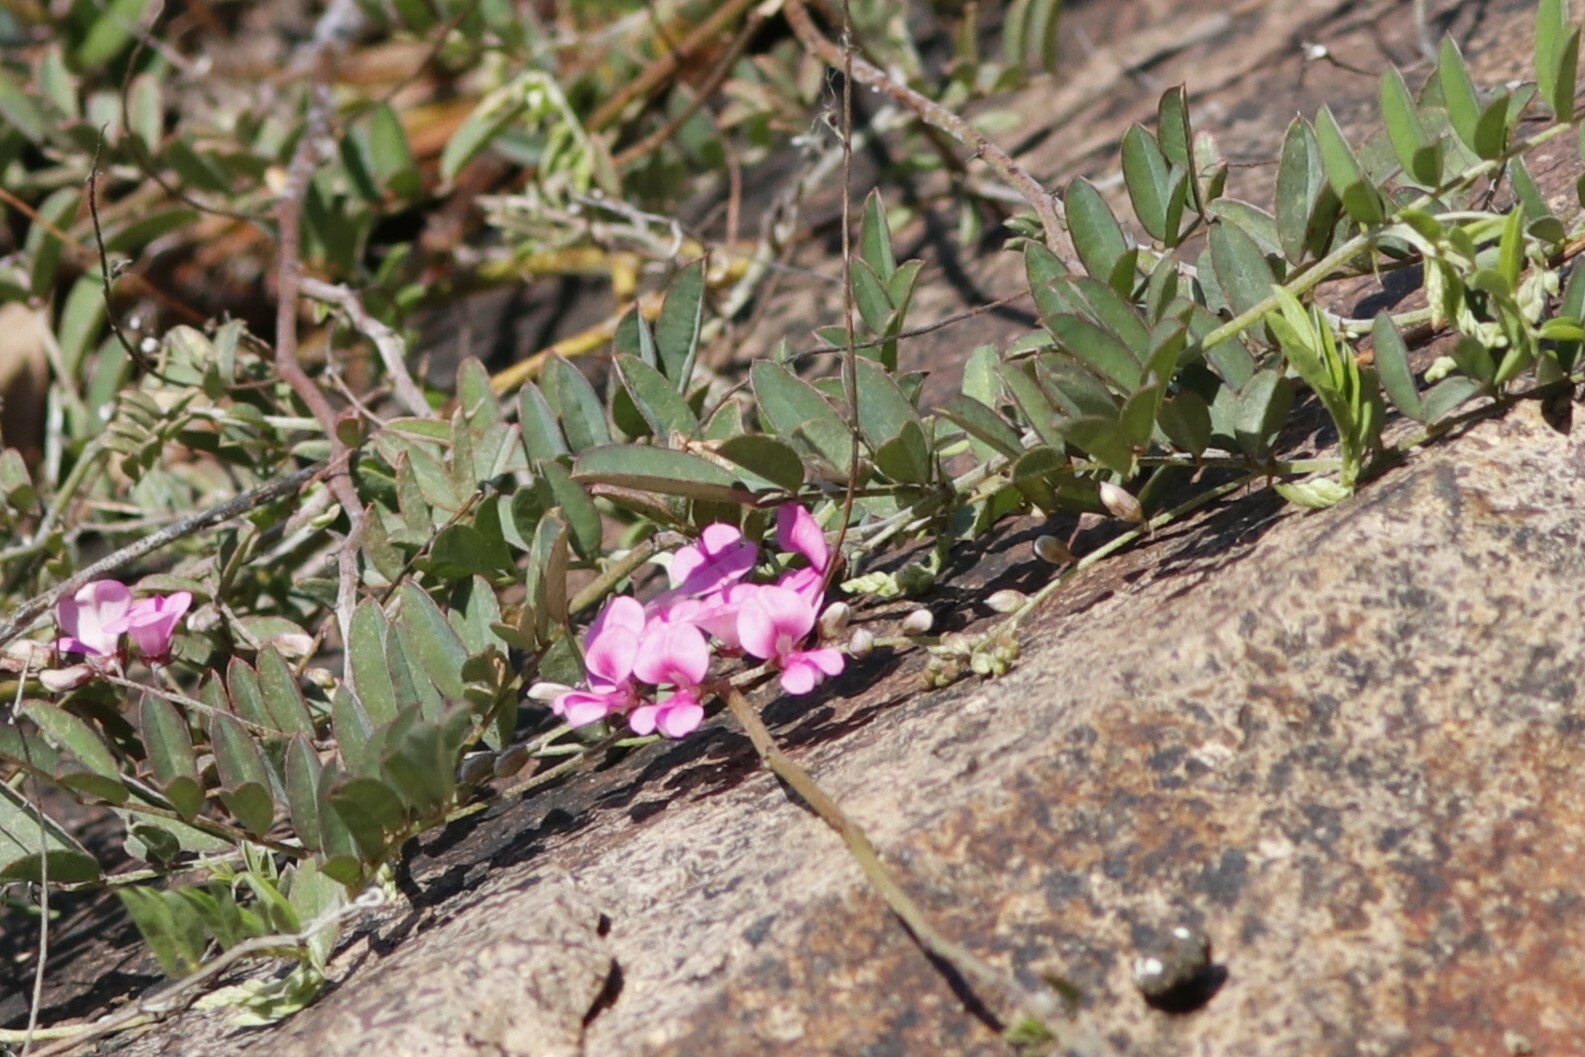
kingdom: Plantae
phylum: Tracheophyta
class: Magnoliopsida
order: Fabales
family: Fabaceae
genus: Indigofera
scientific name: Indigofera vicioides
